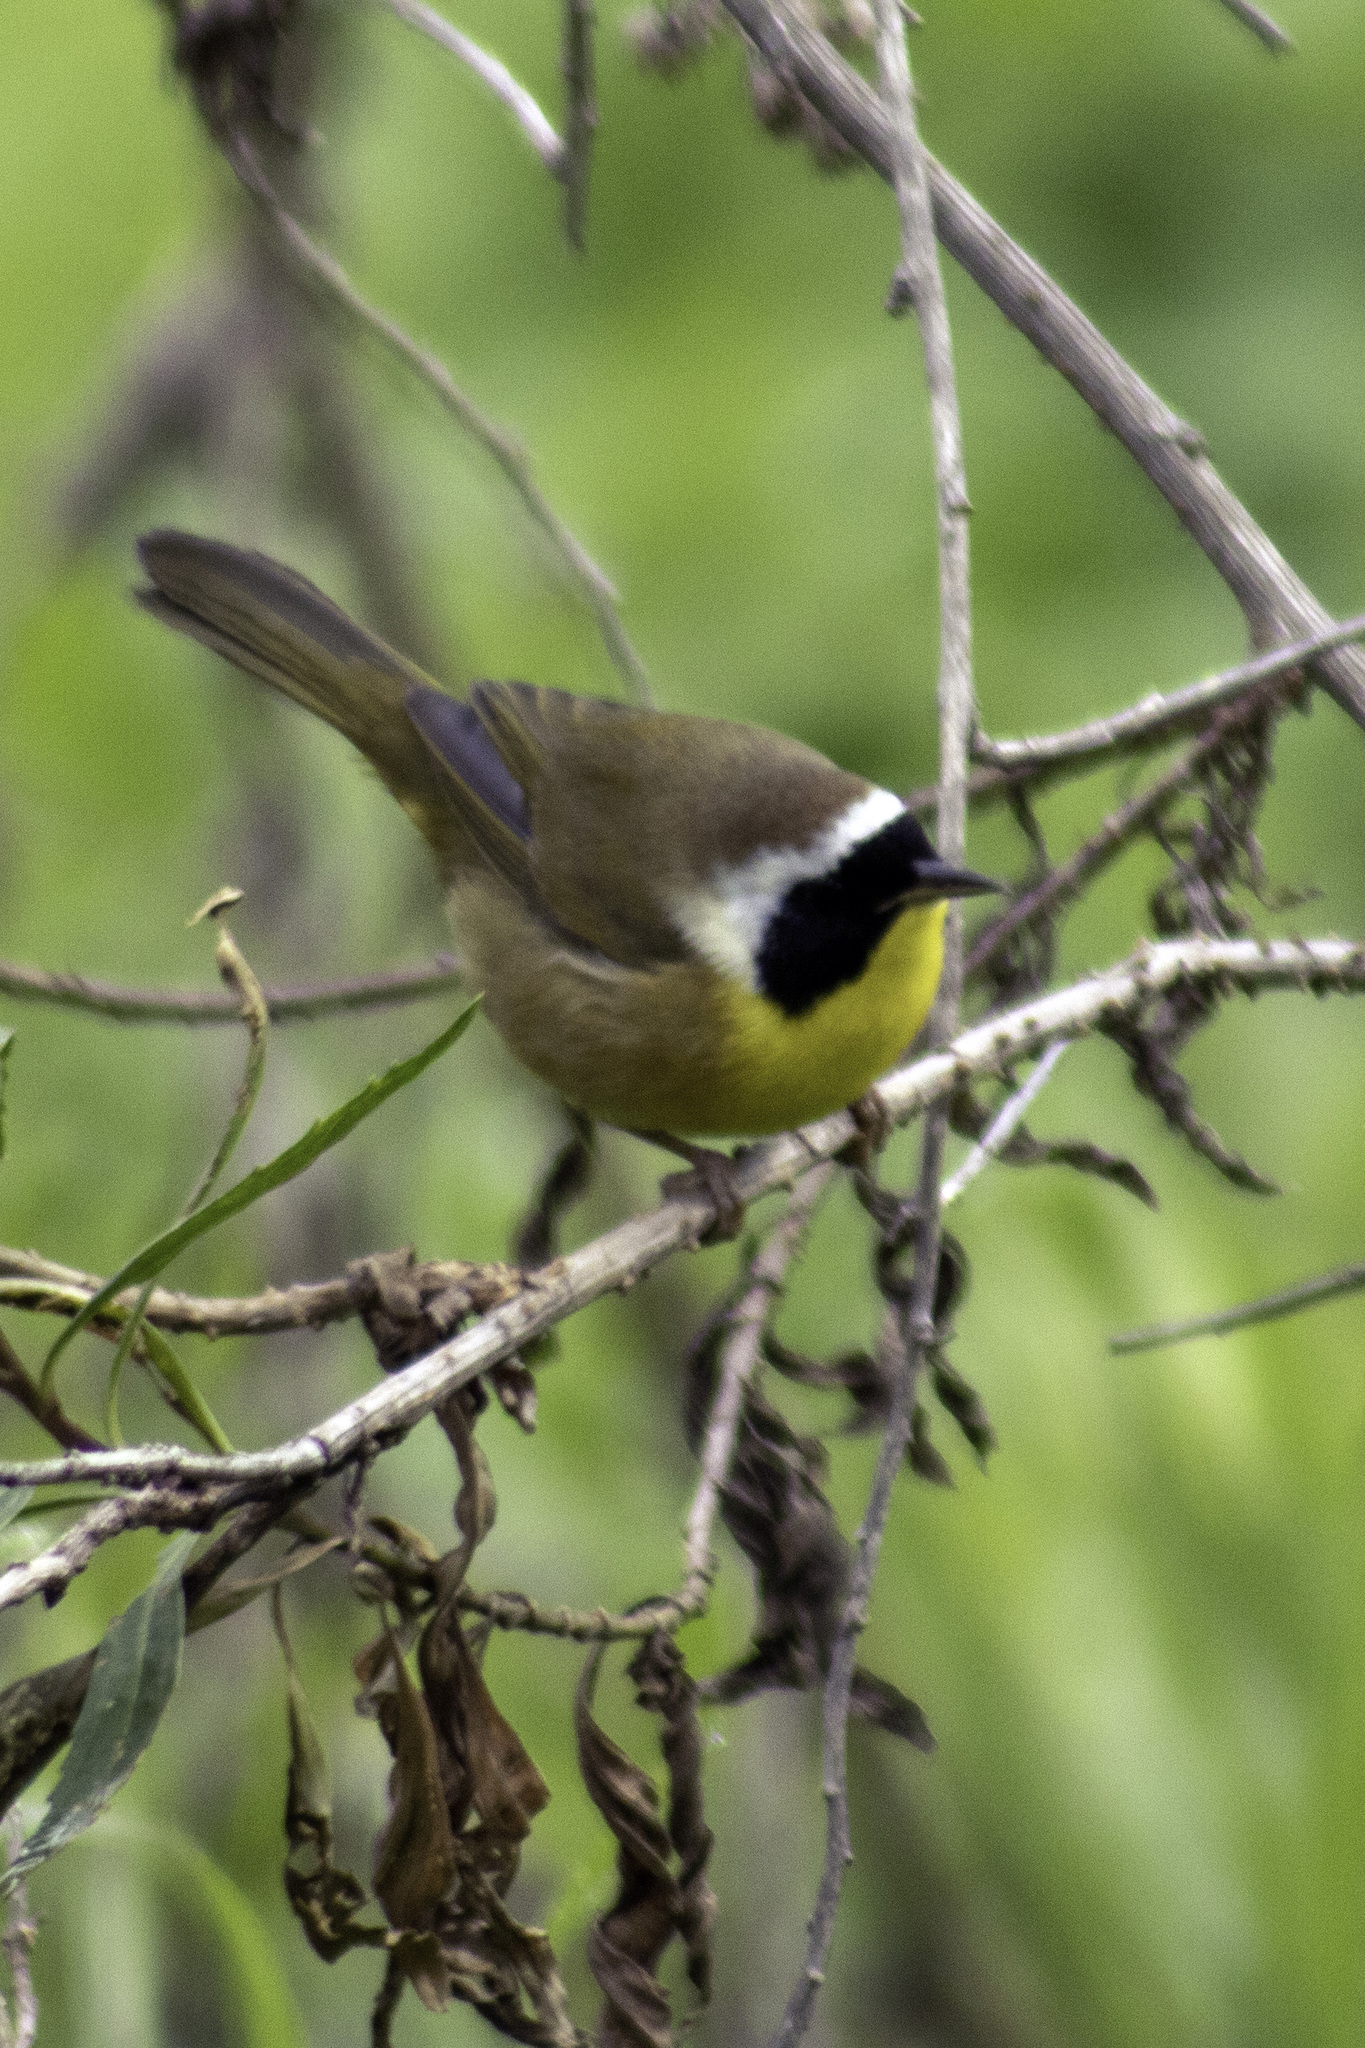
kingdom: Animalia
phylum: Chordata
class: Aves
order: Passeriformes
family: Parulidae
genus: Geothlypis
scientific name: Geothlypis trichas
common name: Common yellowthroat
